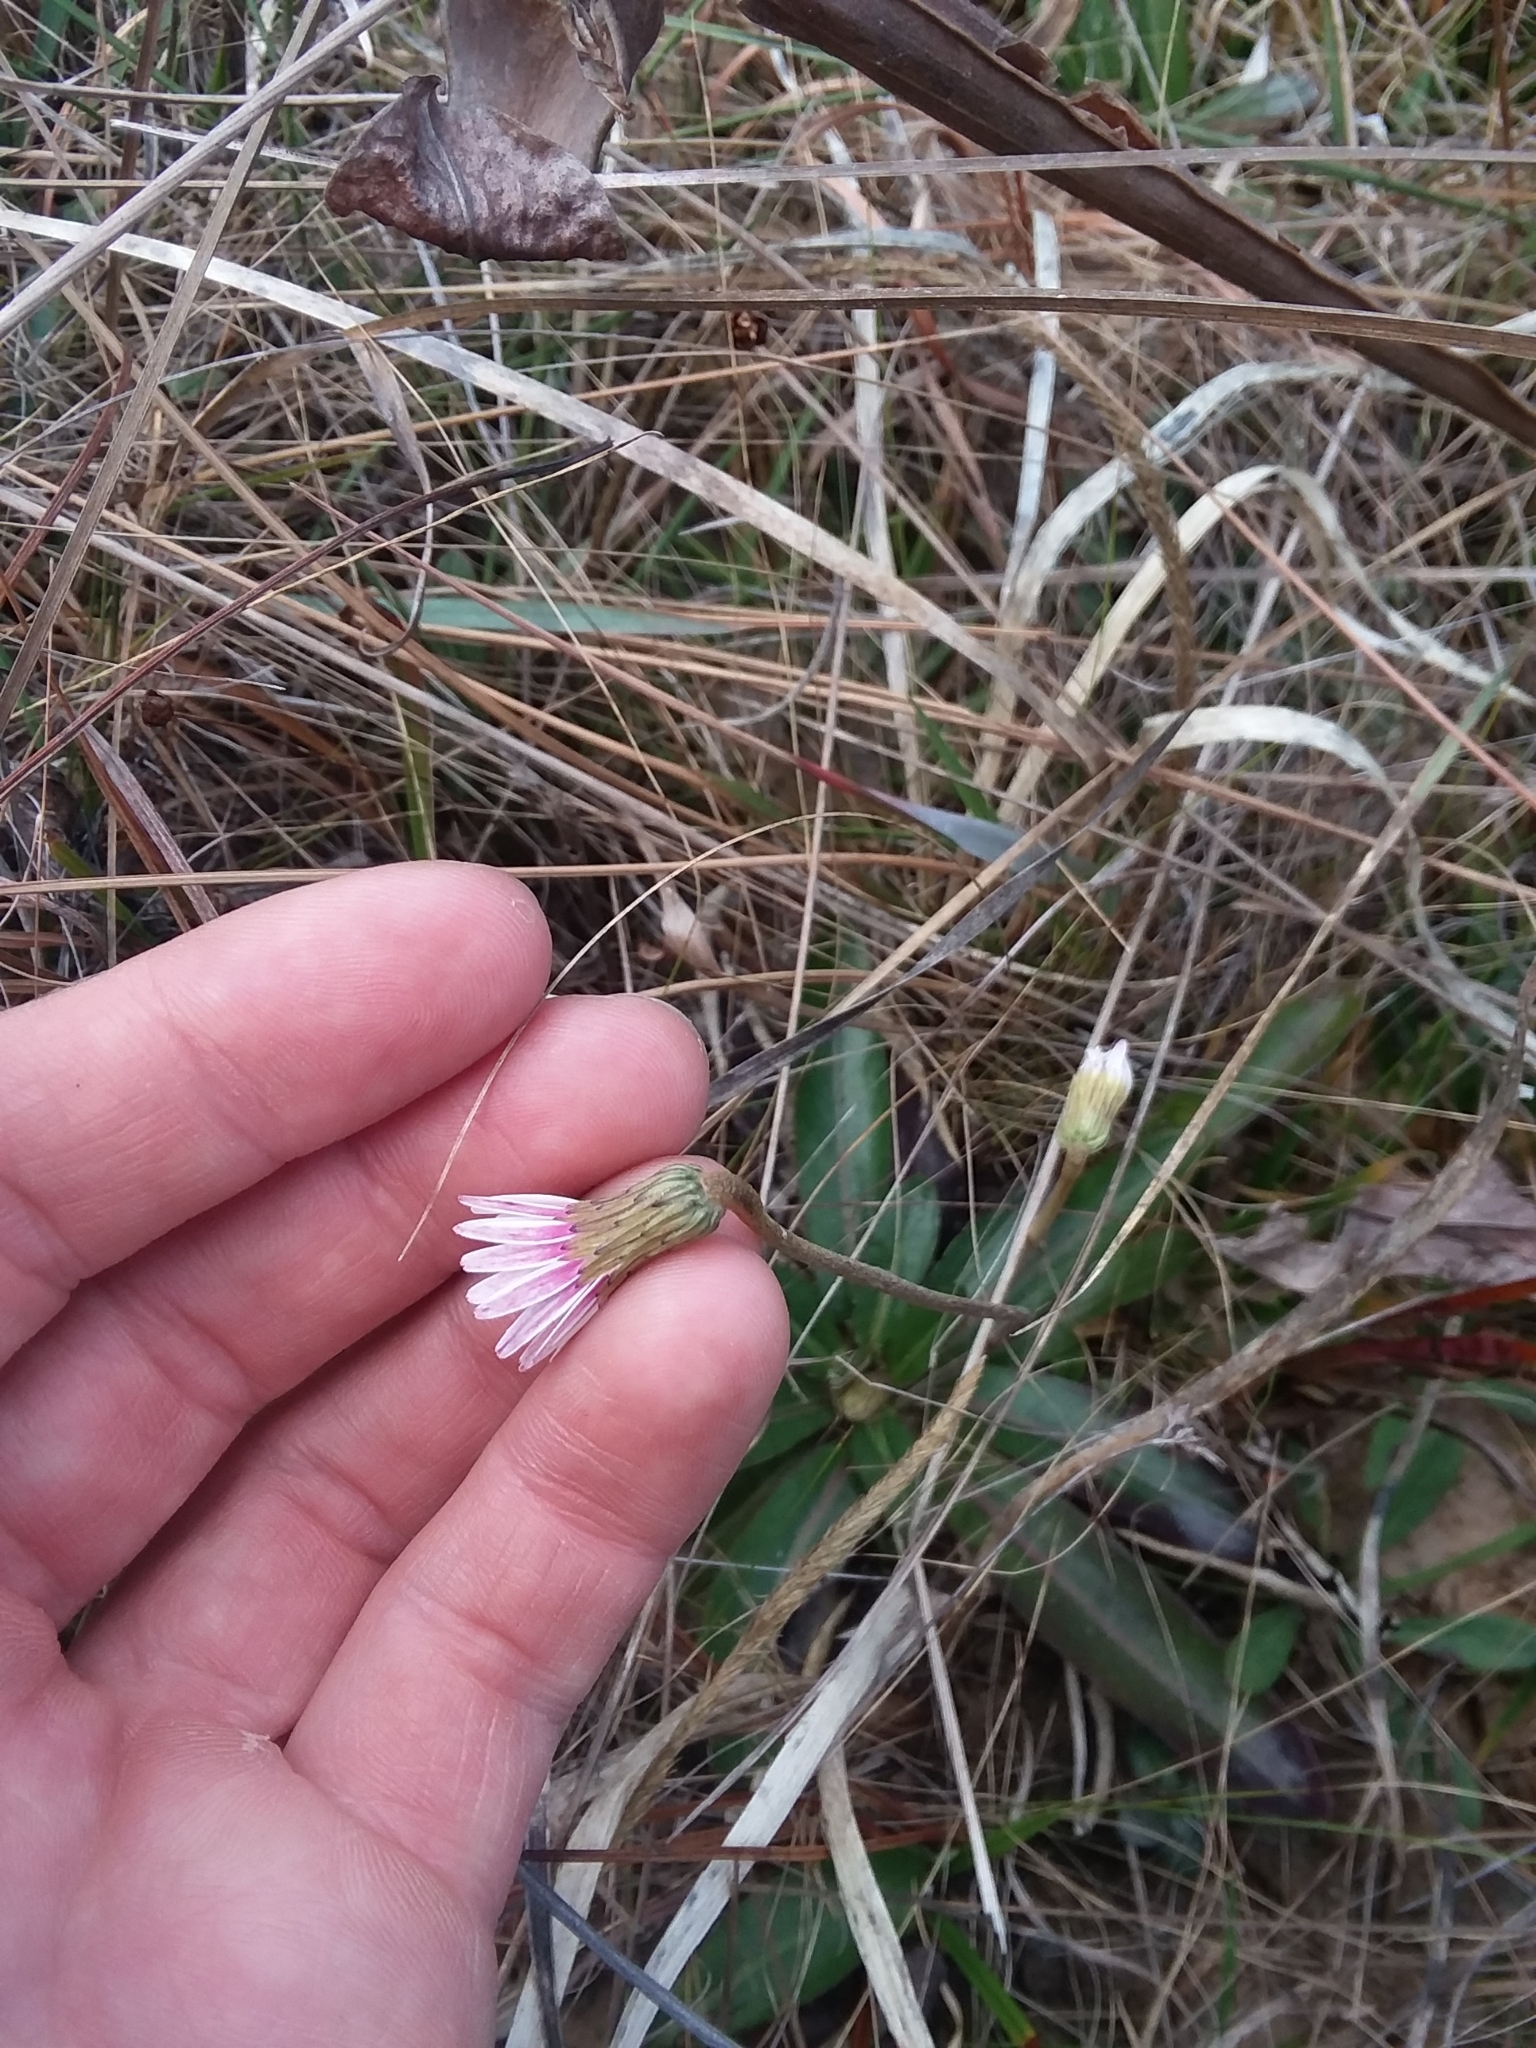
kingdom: Plantae
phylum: Tracheophyta
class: Magnoliopsida
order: Asterales
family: Asteraceae
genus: Chaptalia
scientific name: Chaptalia tomentosa
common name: Woolly sunbonnet
